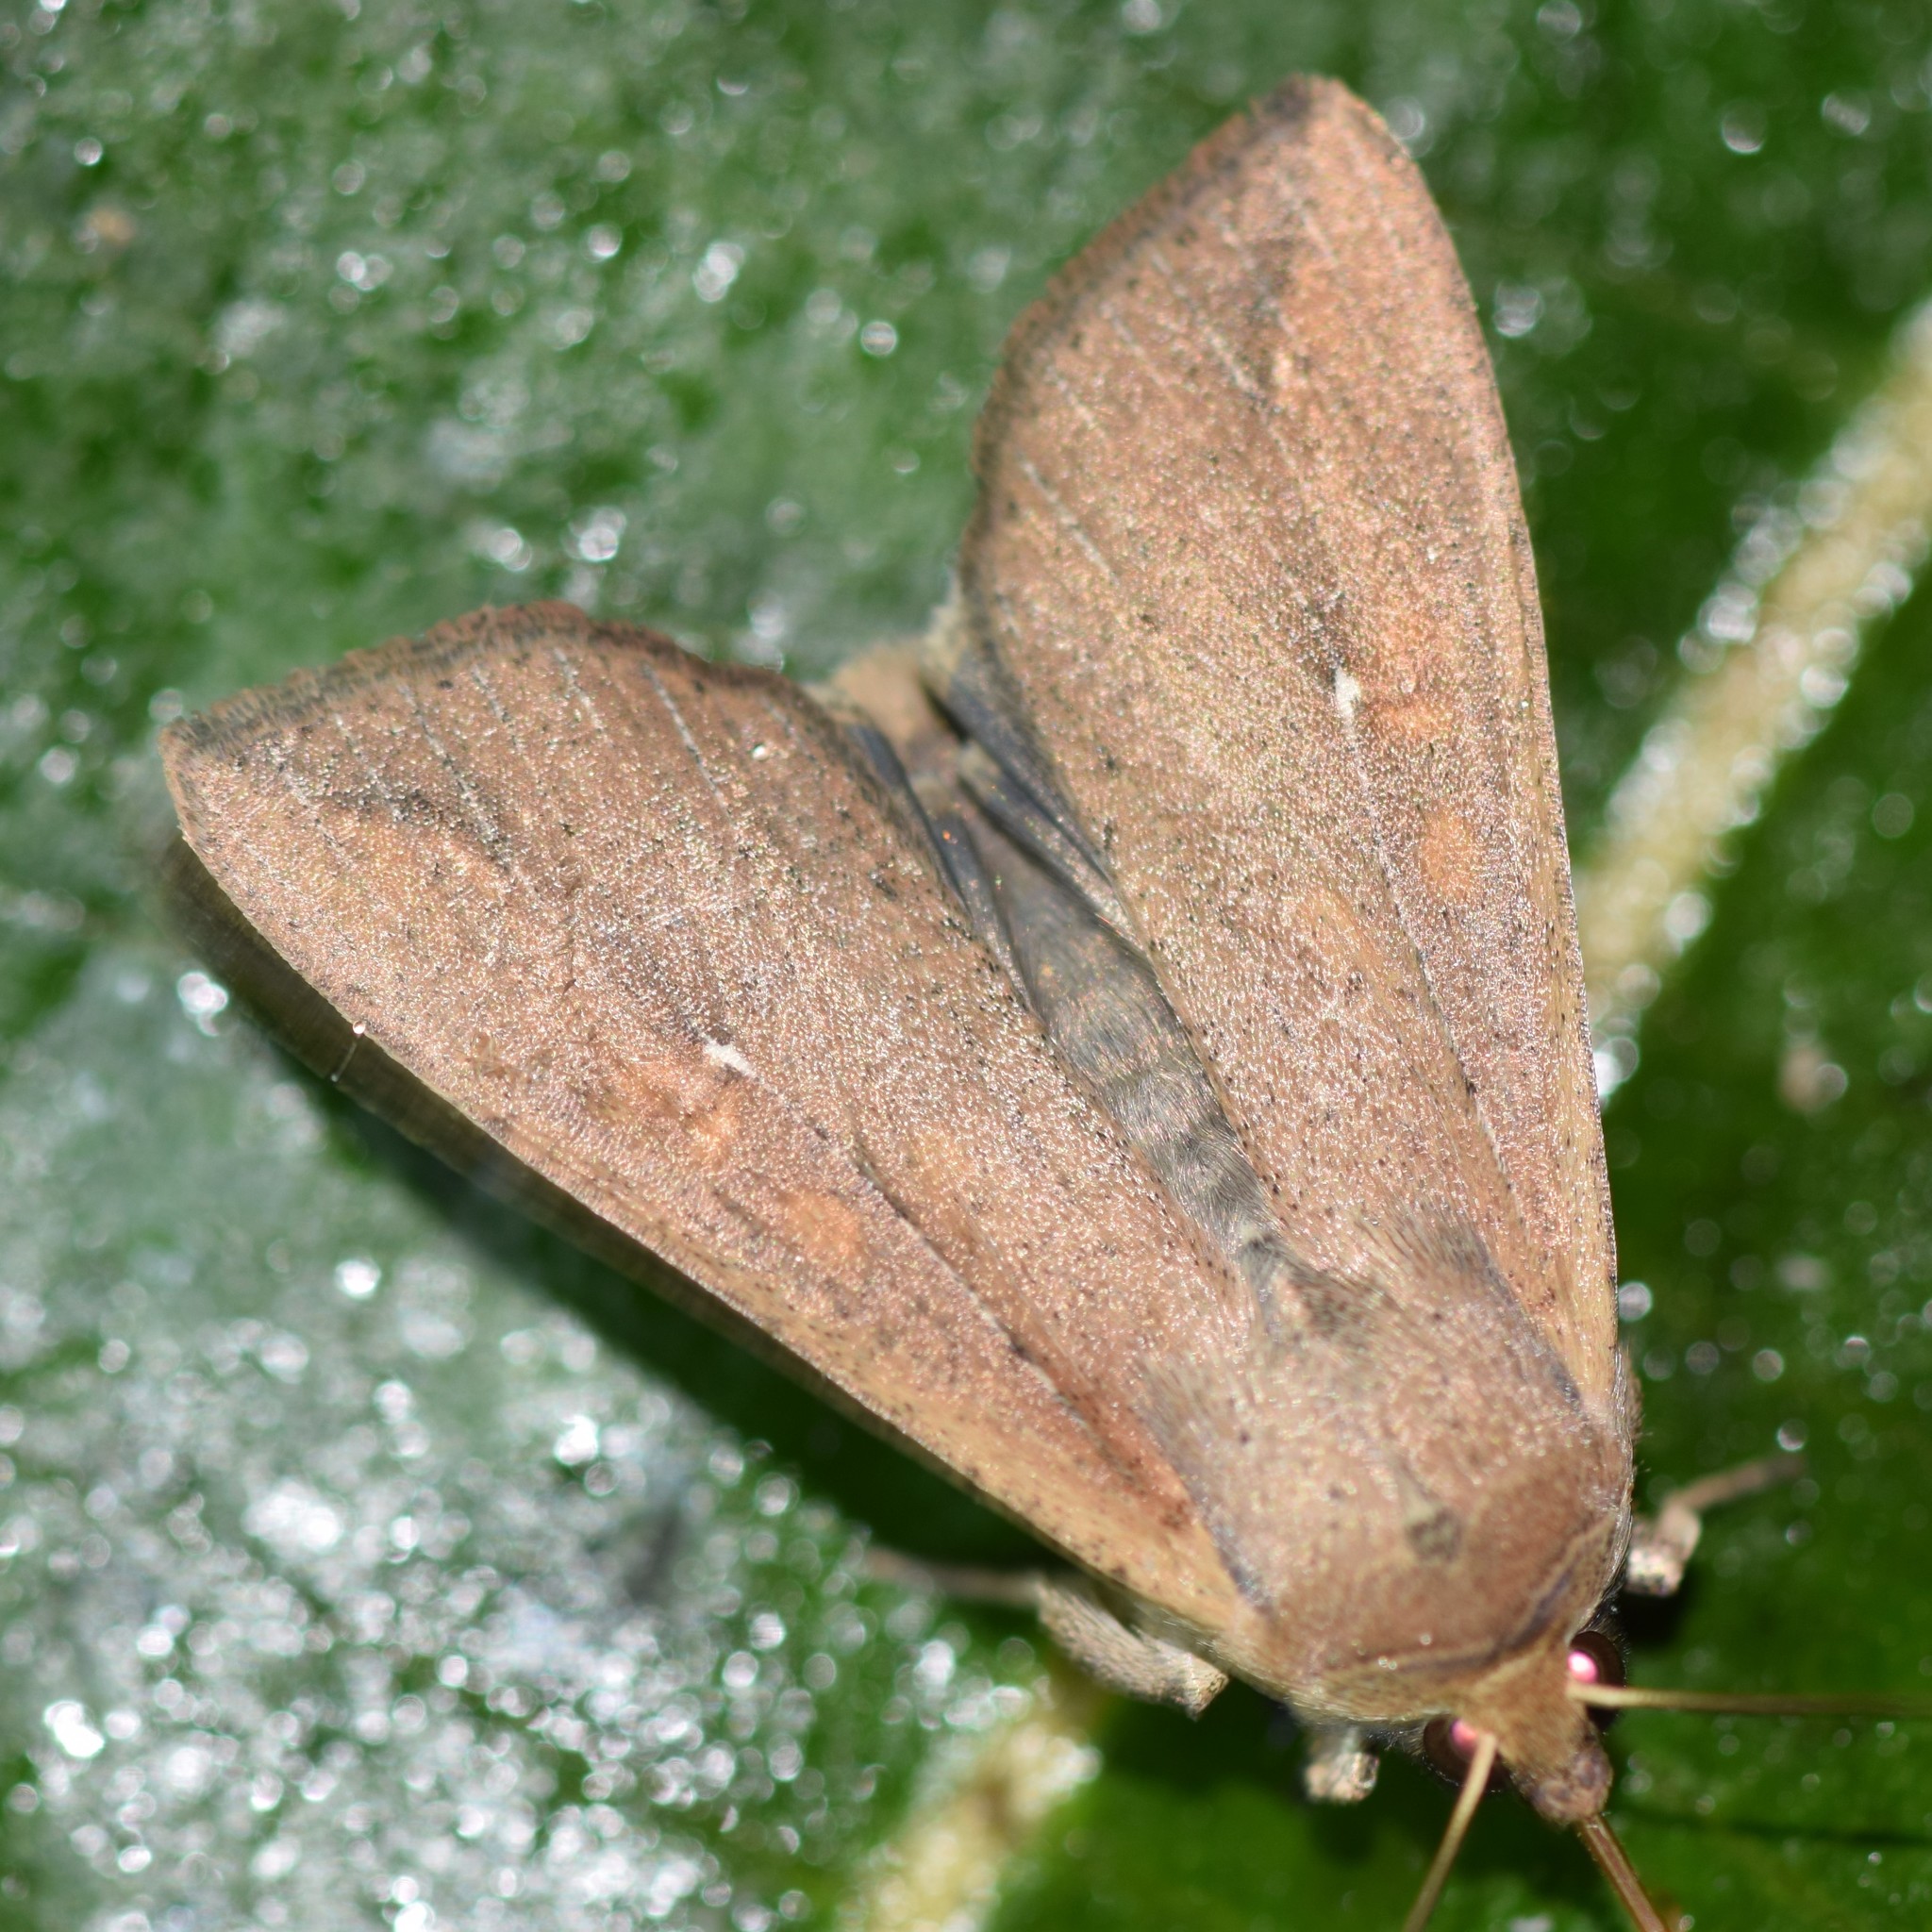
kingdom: Animalia
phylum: Arthropoda
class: Insecta
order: Lepidoptera
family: Noctuidae
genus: Mythimna
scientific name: Mythimna unipuncta
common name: White-speck
